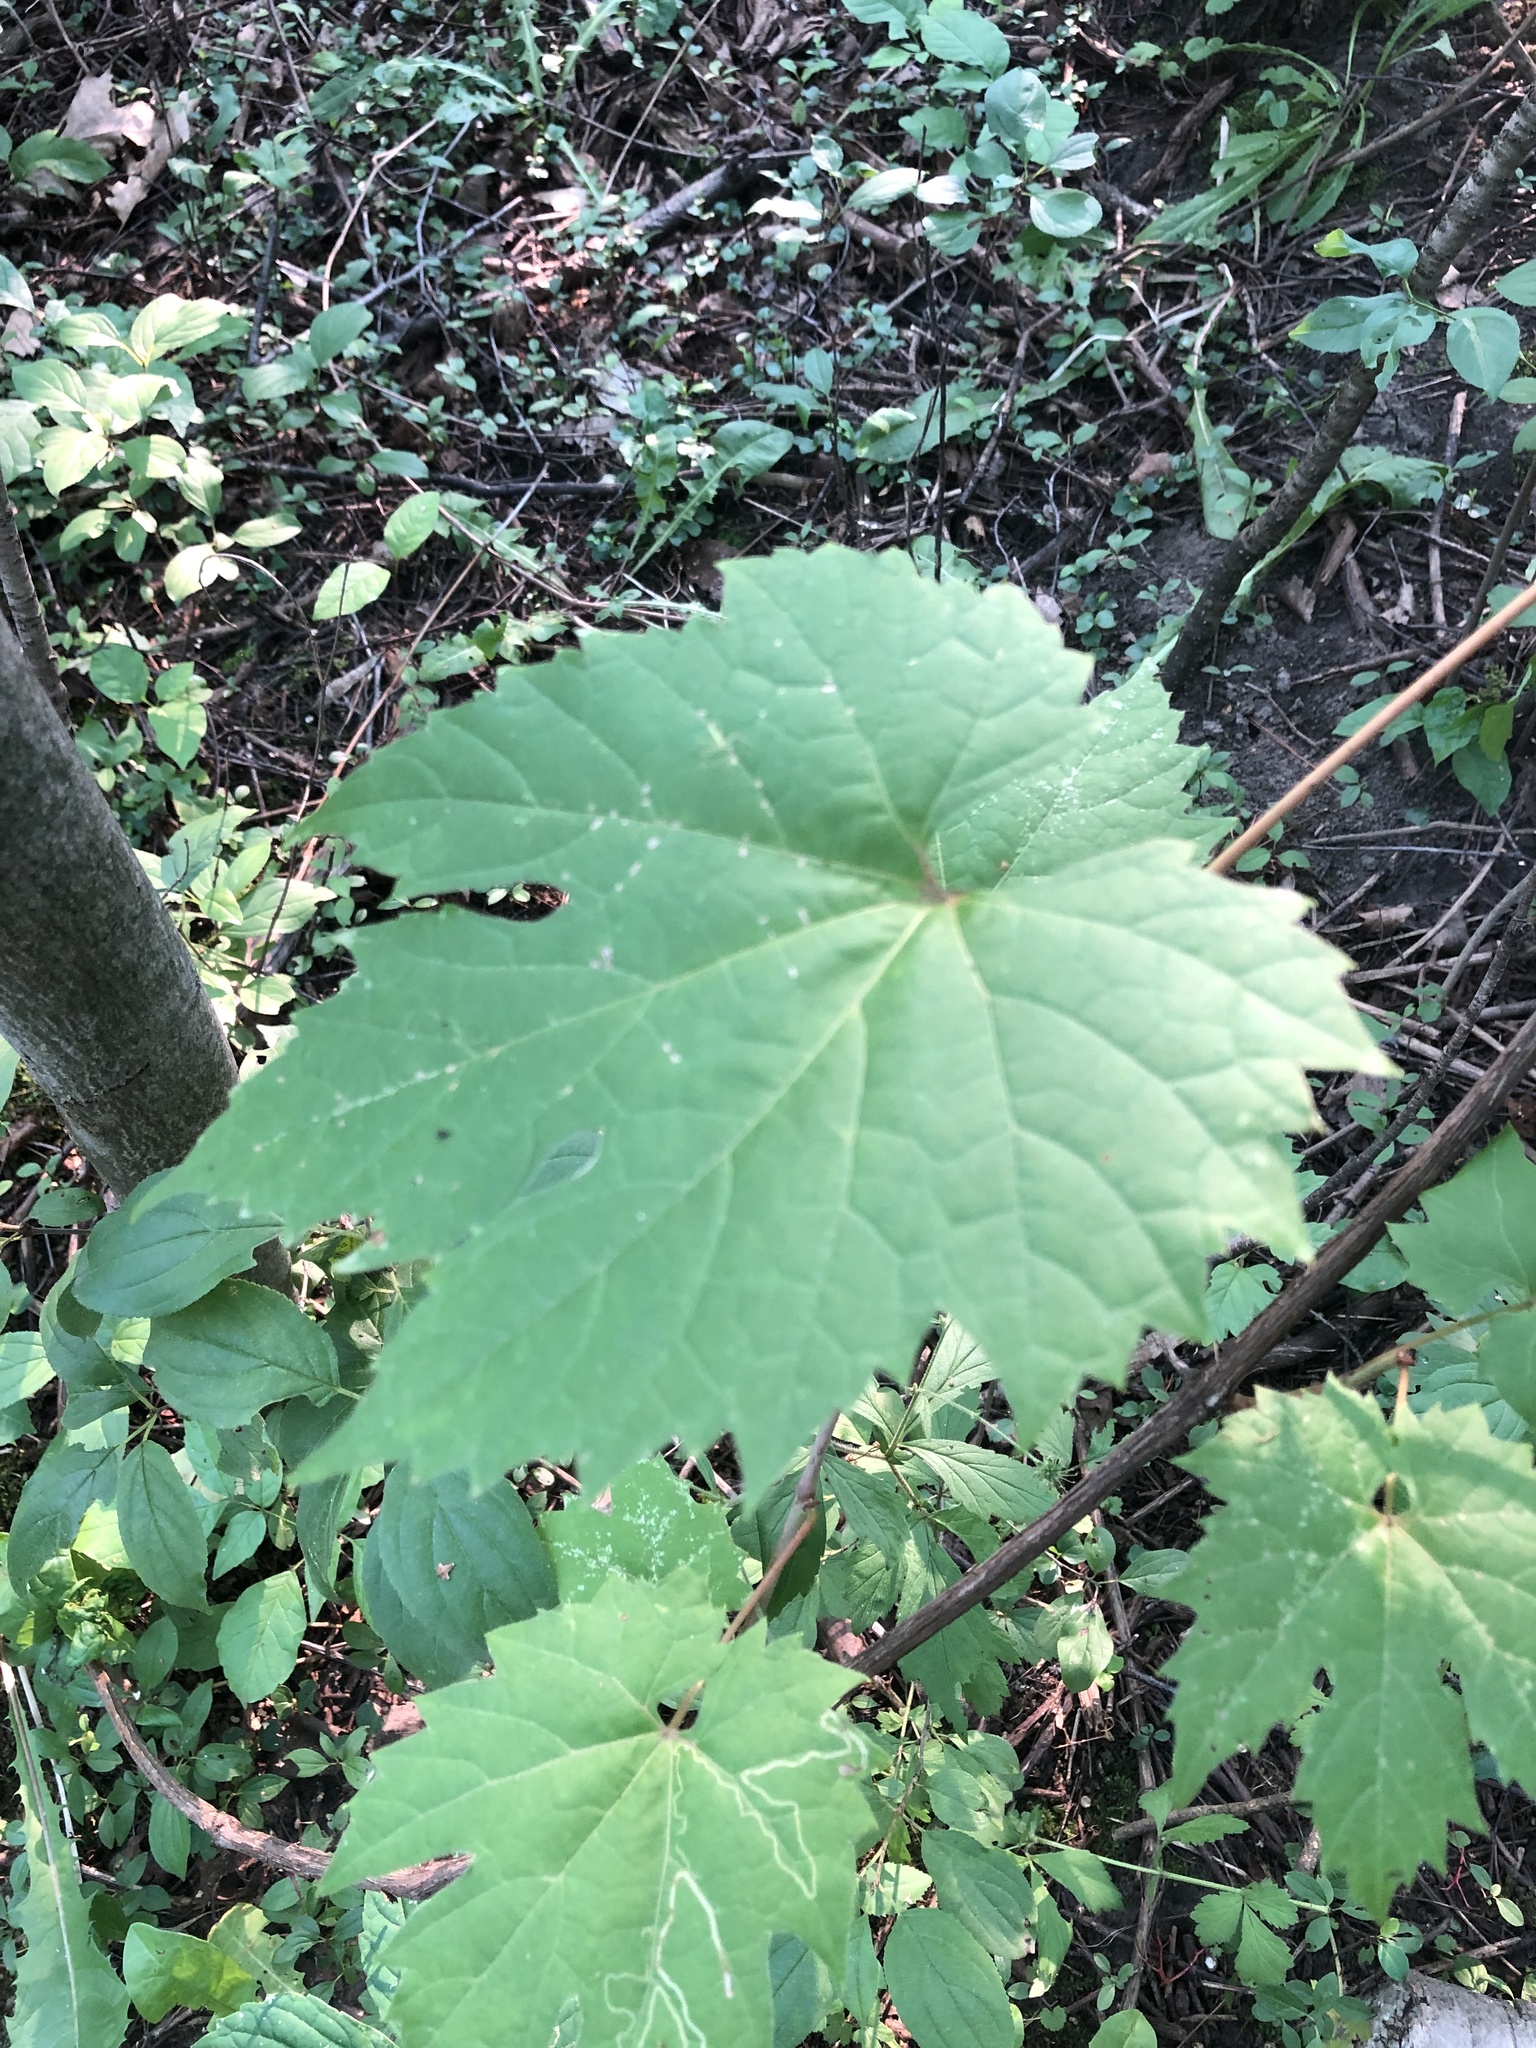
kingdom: Plantae
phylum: Tracheophyta
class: Magnoliopsida
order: Vitales
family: Vitaceae
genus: Vitis
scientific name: Vitis riparia
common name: Frost grape
